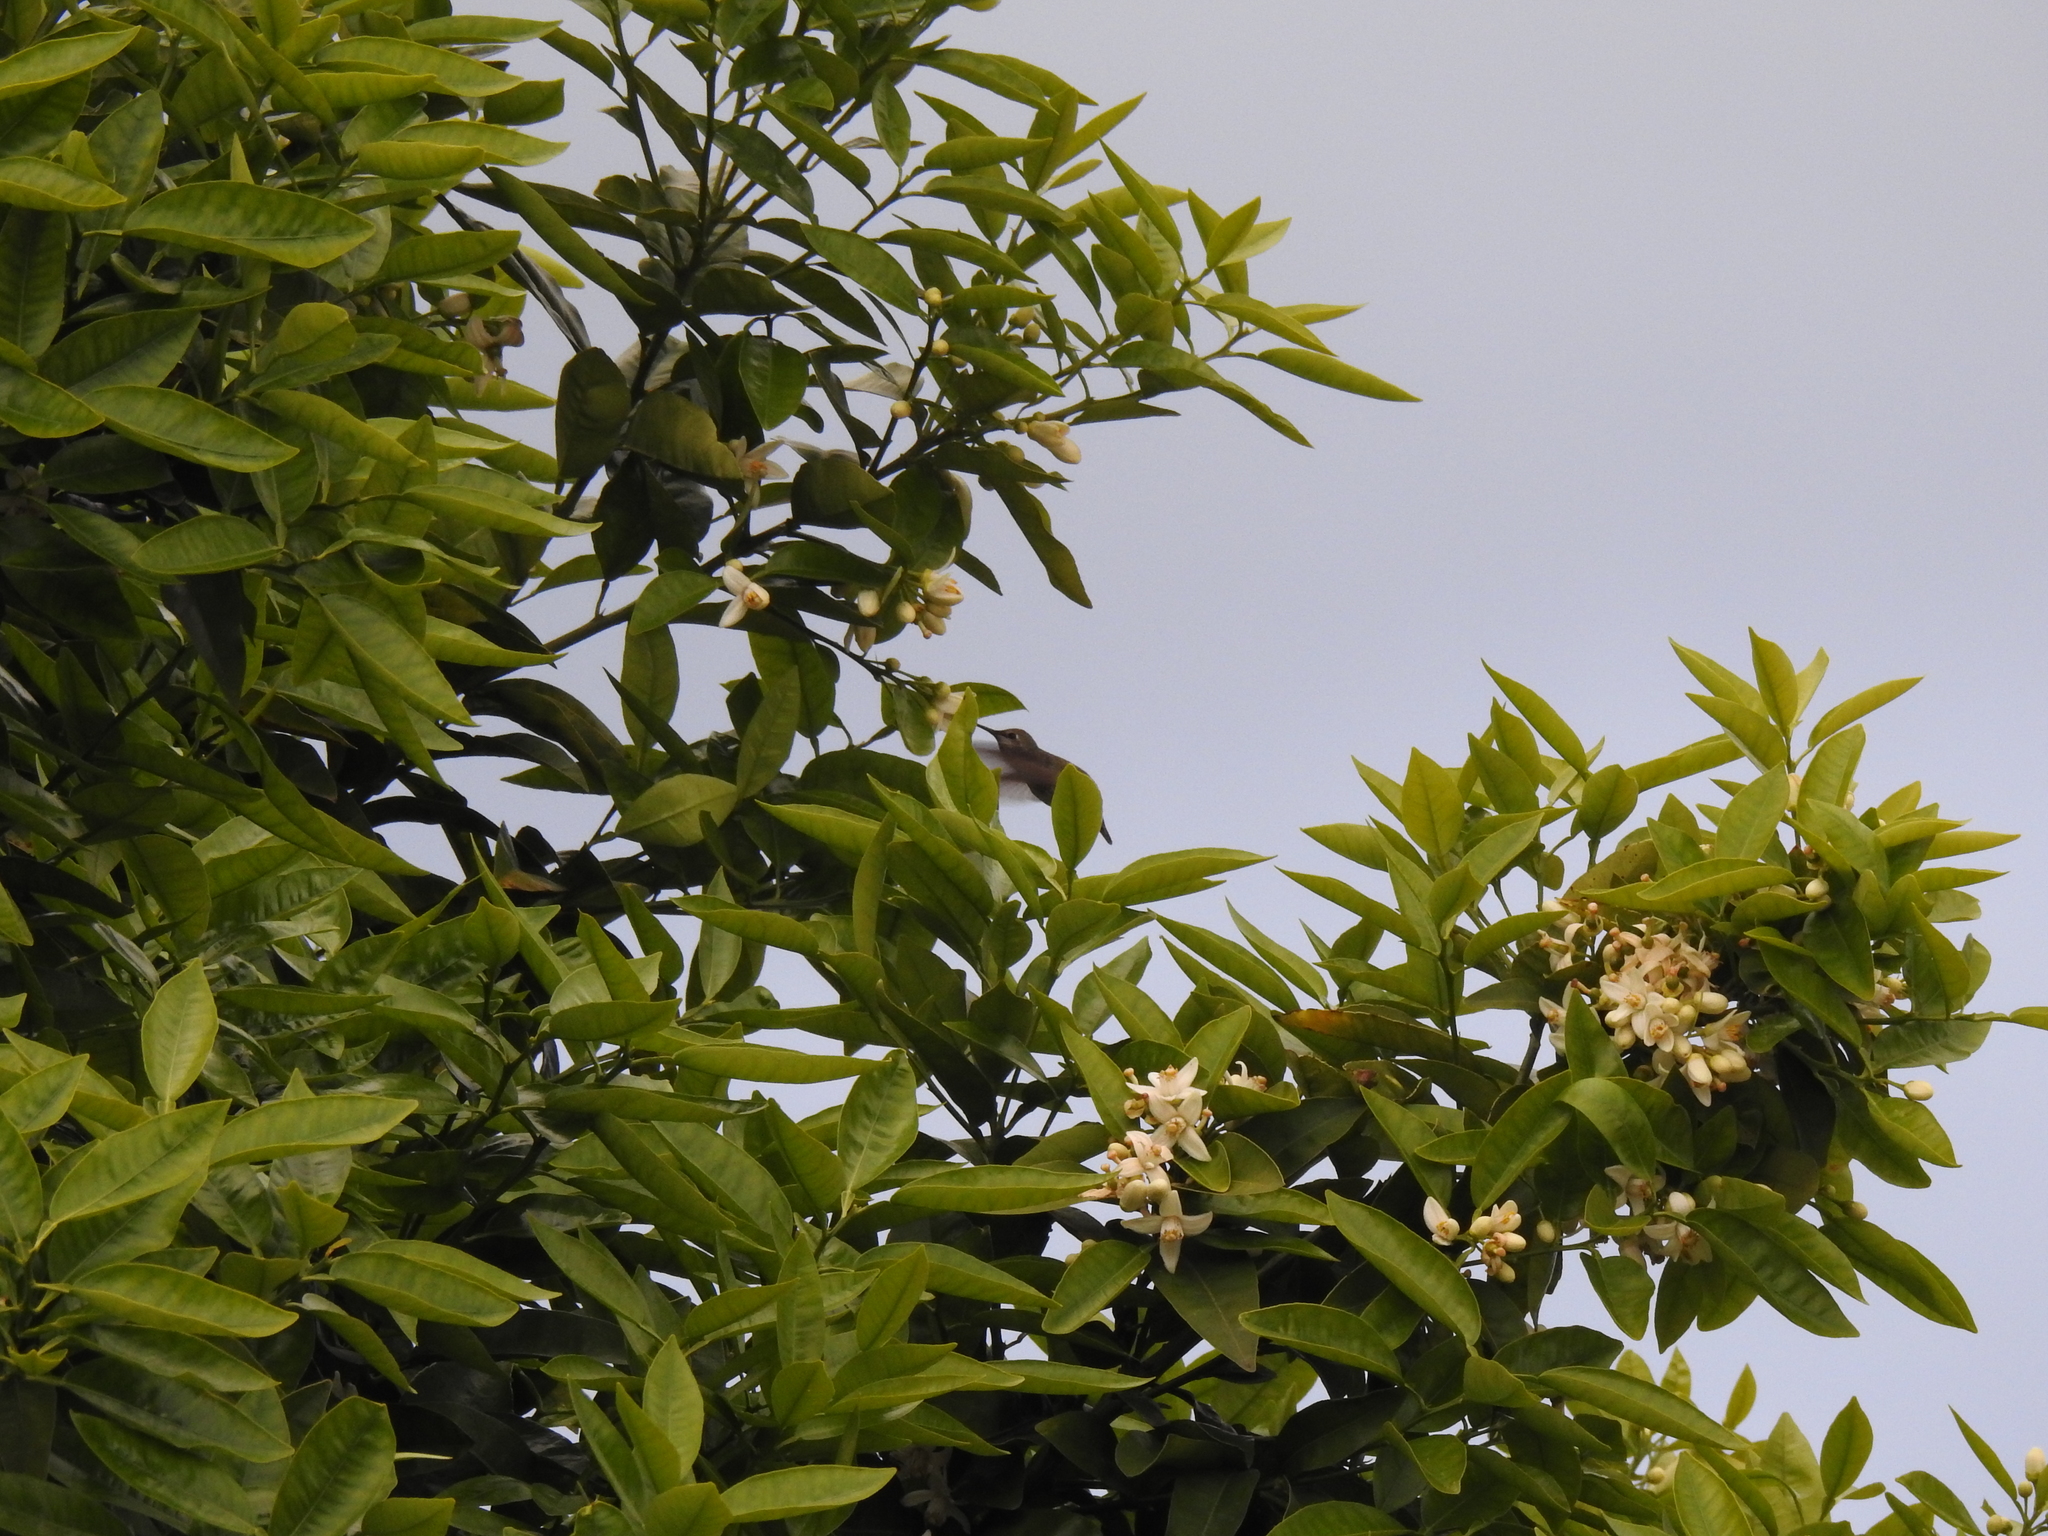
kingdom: Animalia
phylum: Chordata
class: Aves
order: Apodiformes
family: Trochilidae
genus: Calypte
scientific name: Calypte anna
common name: Anna's hummingbird
